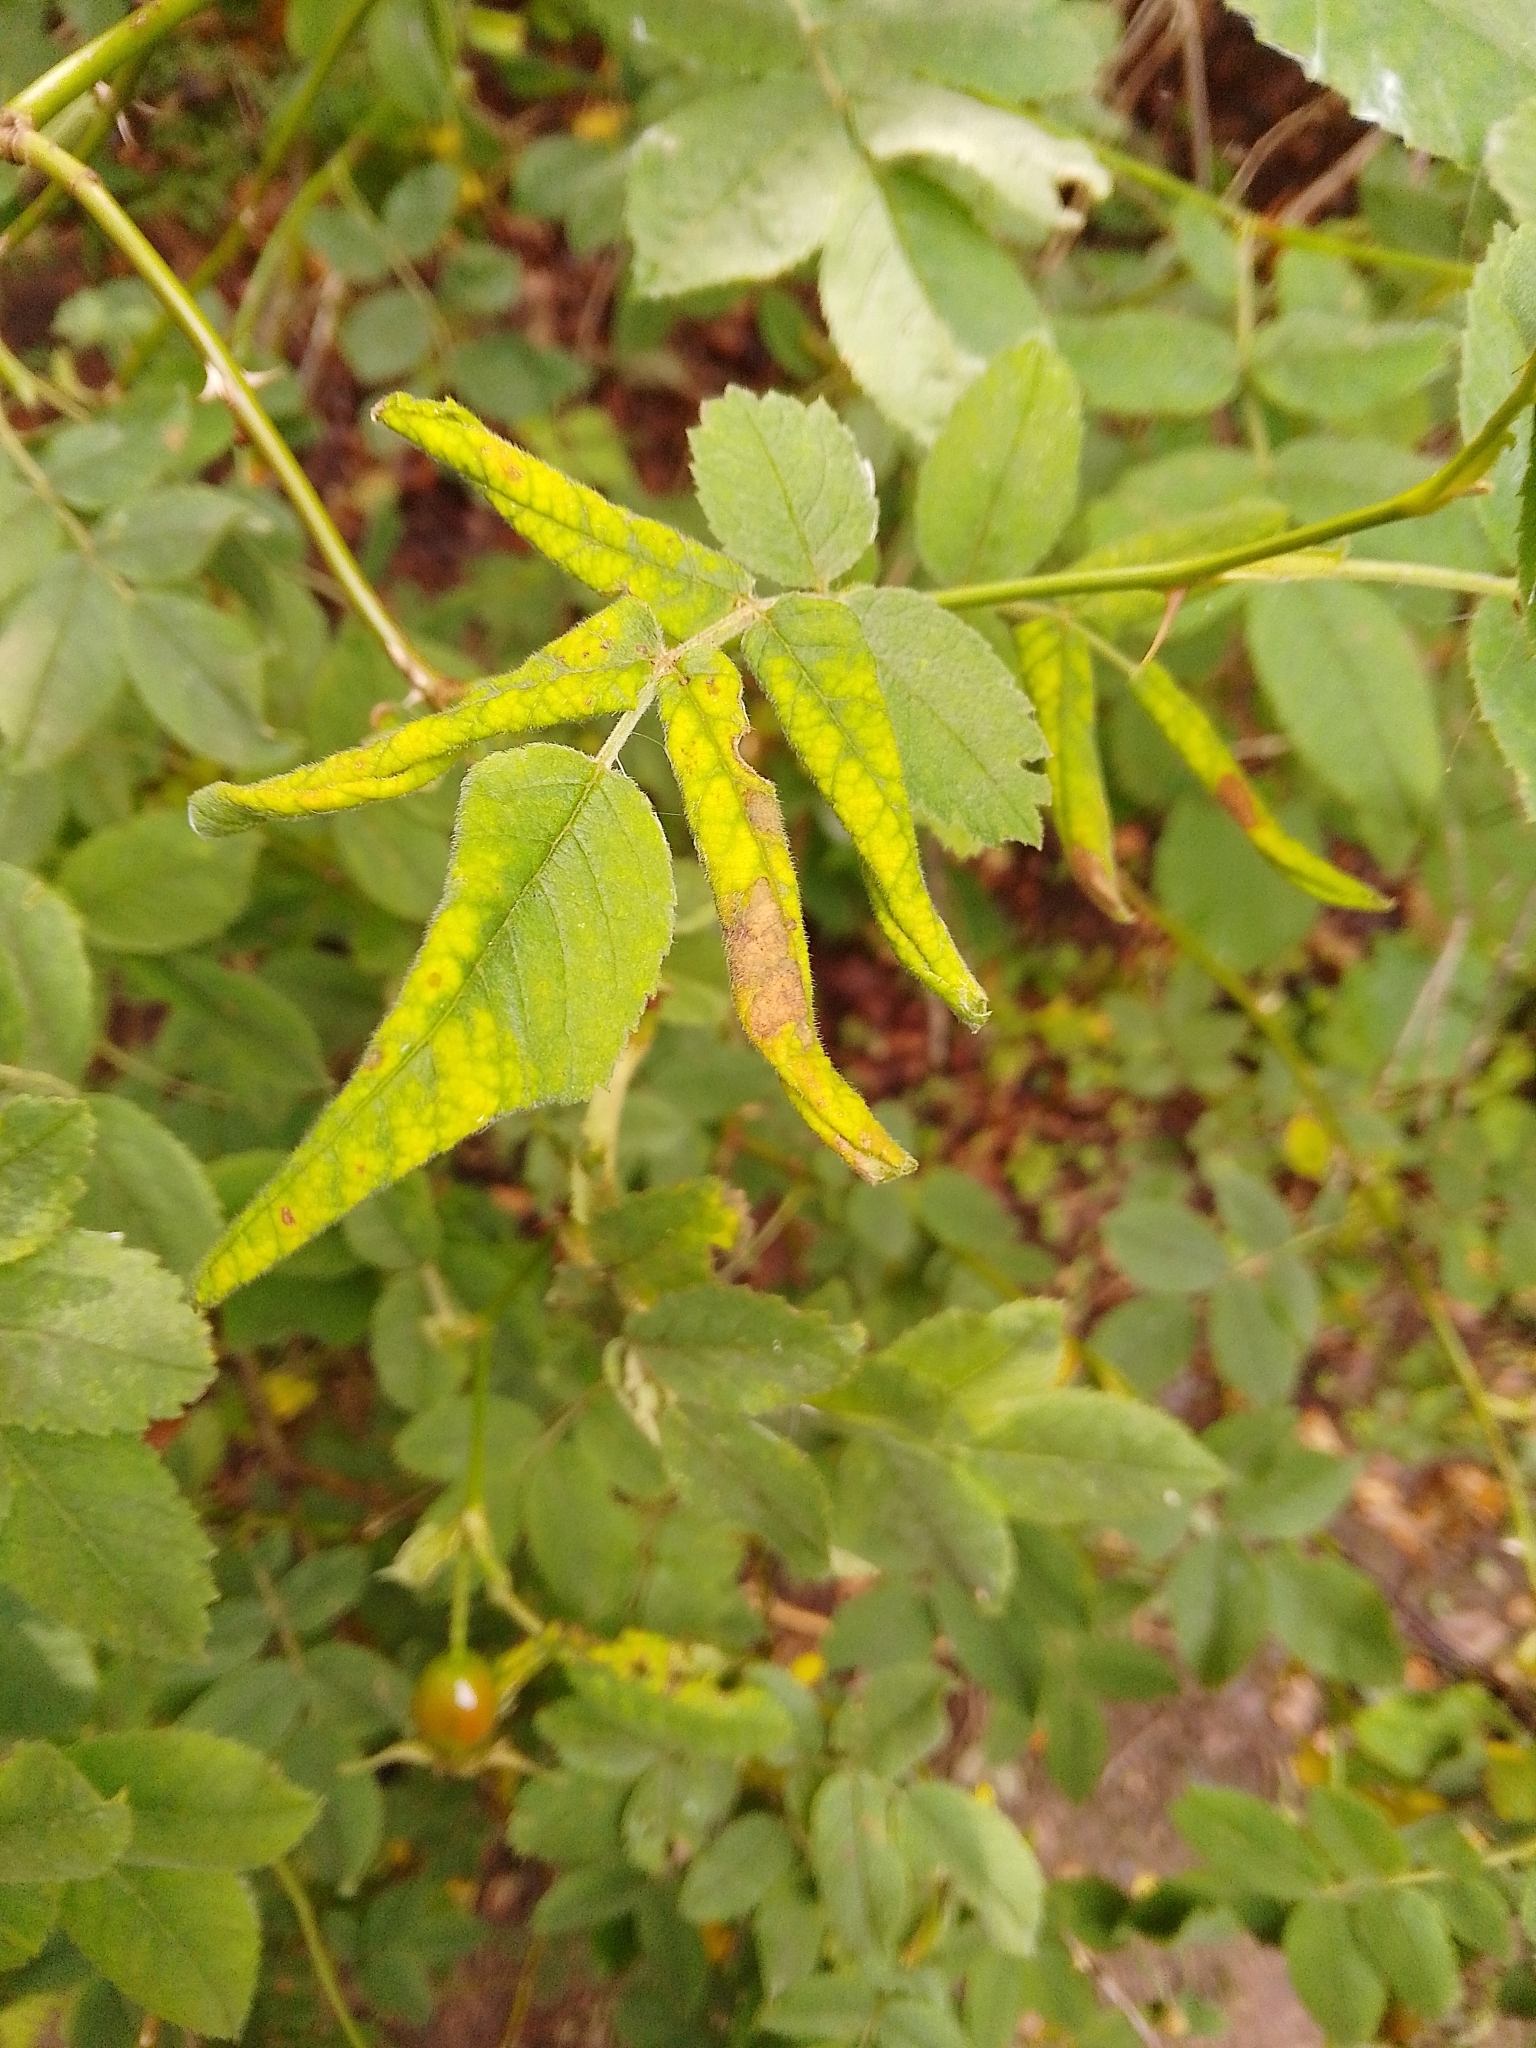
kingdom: Animalia
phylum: Arthropoda
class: Insecta
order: Hymenoptera
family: Tenthredinidae
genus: Blennocampa
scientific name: Blennocampa phyllocolpa
